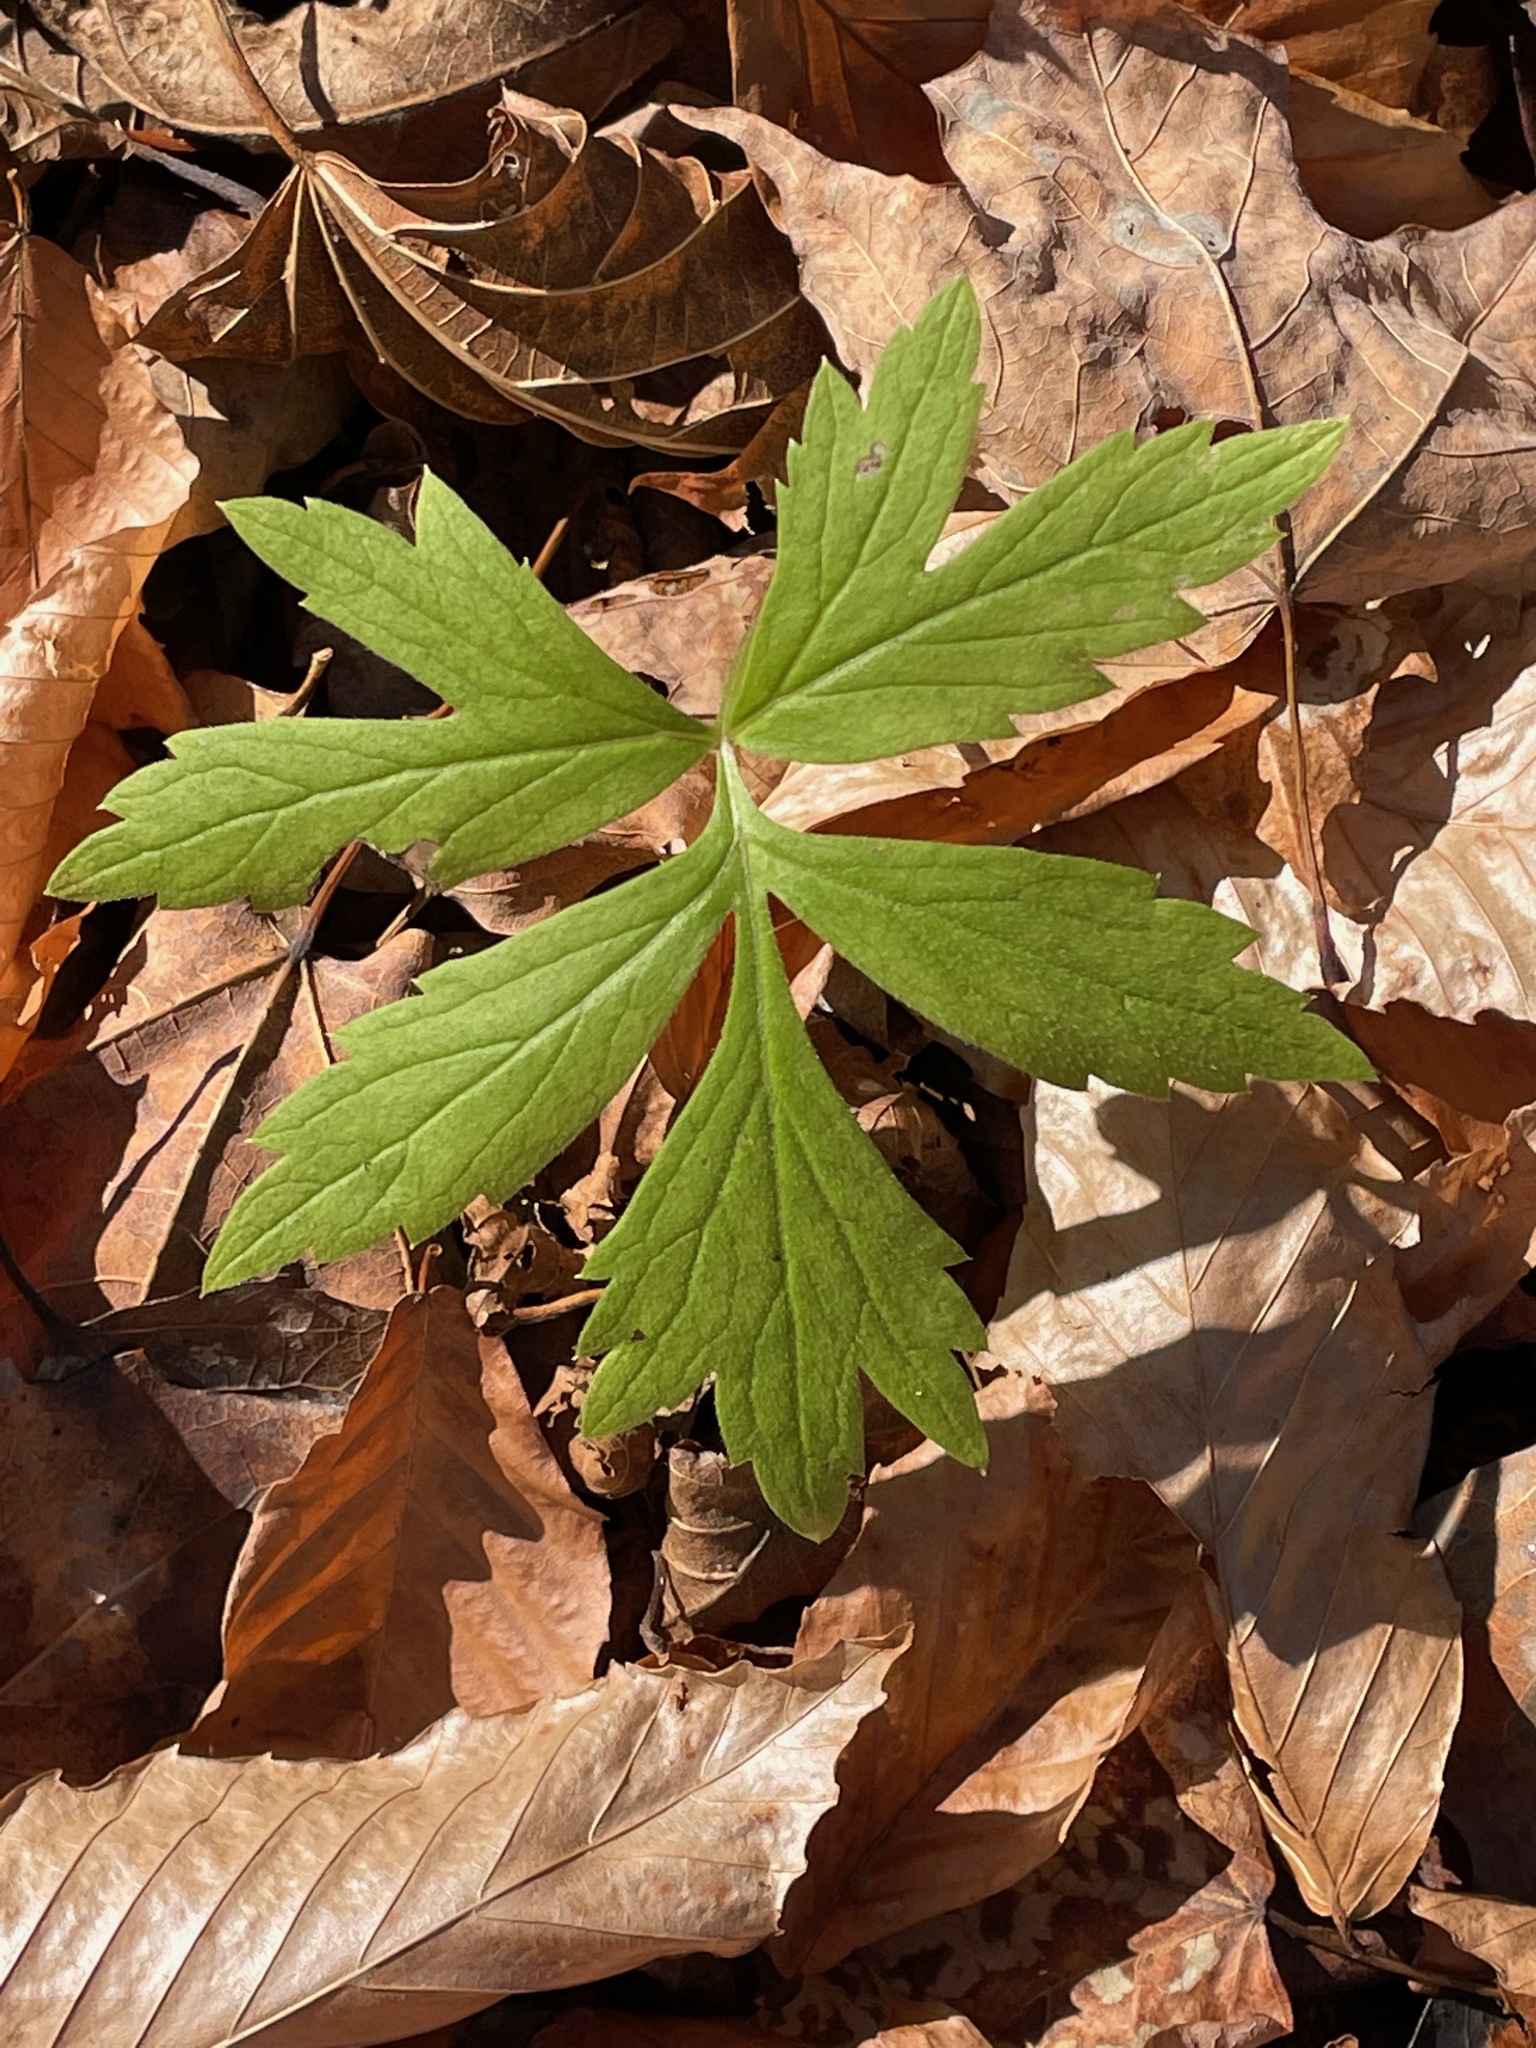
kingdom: Plantae
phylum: Tracheophyta
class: Magnoliopsida
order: Boraginales
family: Hydrophyllaceae
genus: Hydrophyllum
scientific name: Hydrophyllum virginianum
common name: Virginia waterleaf
